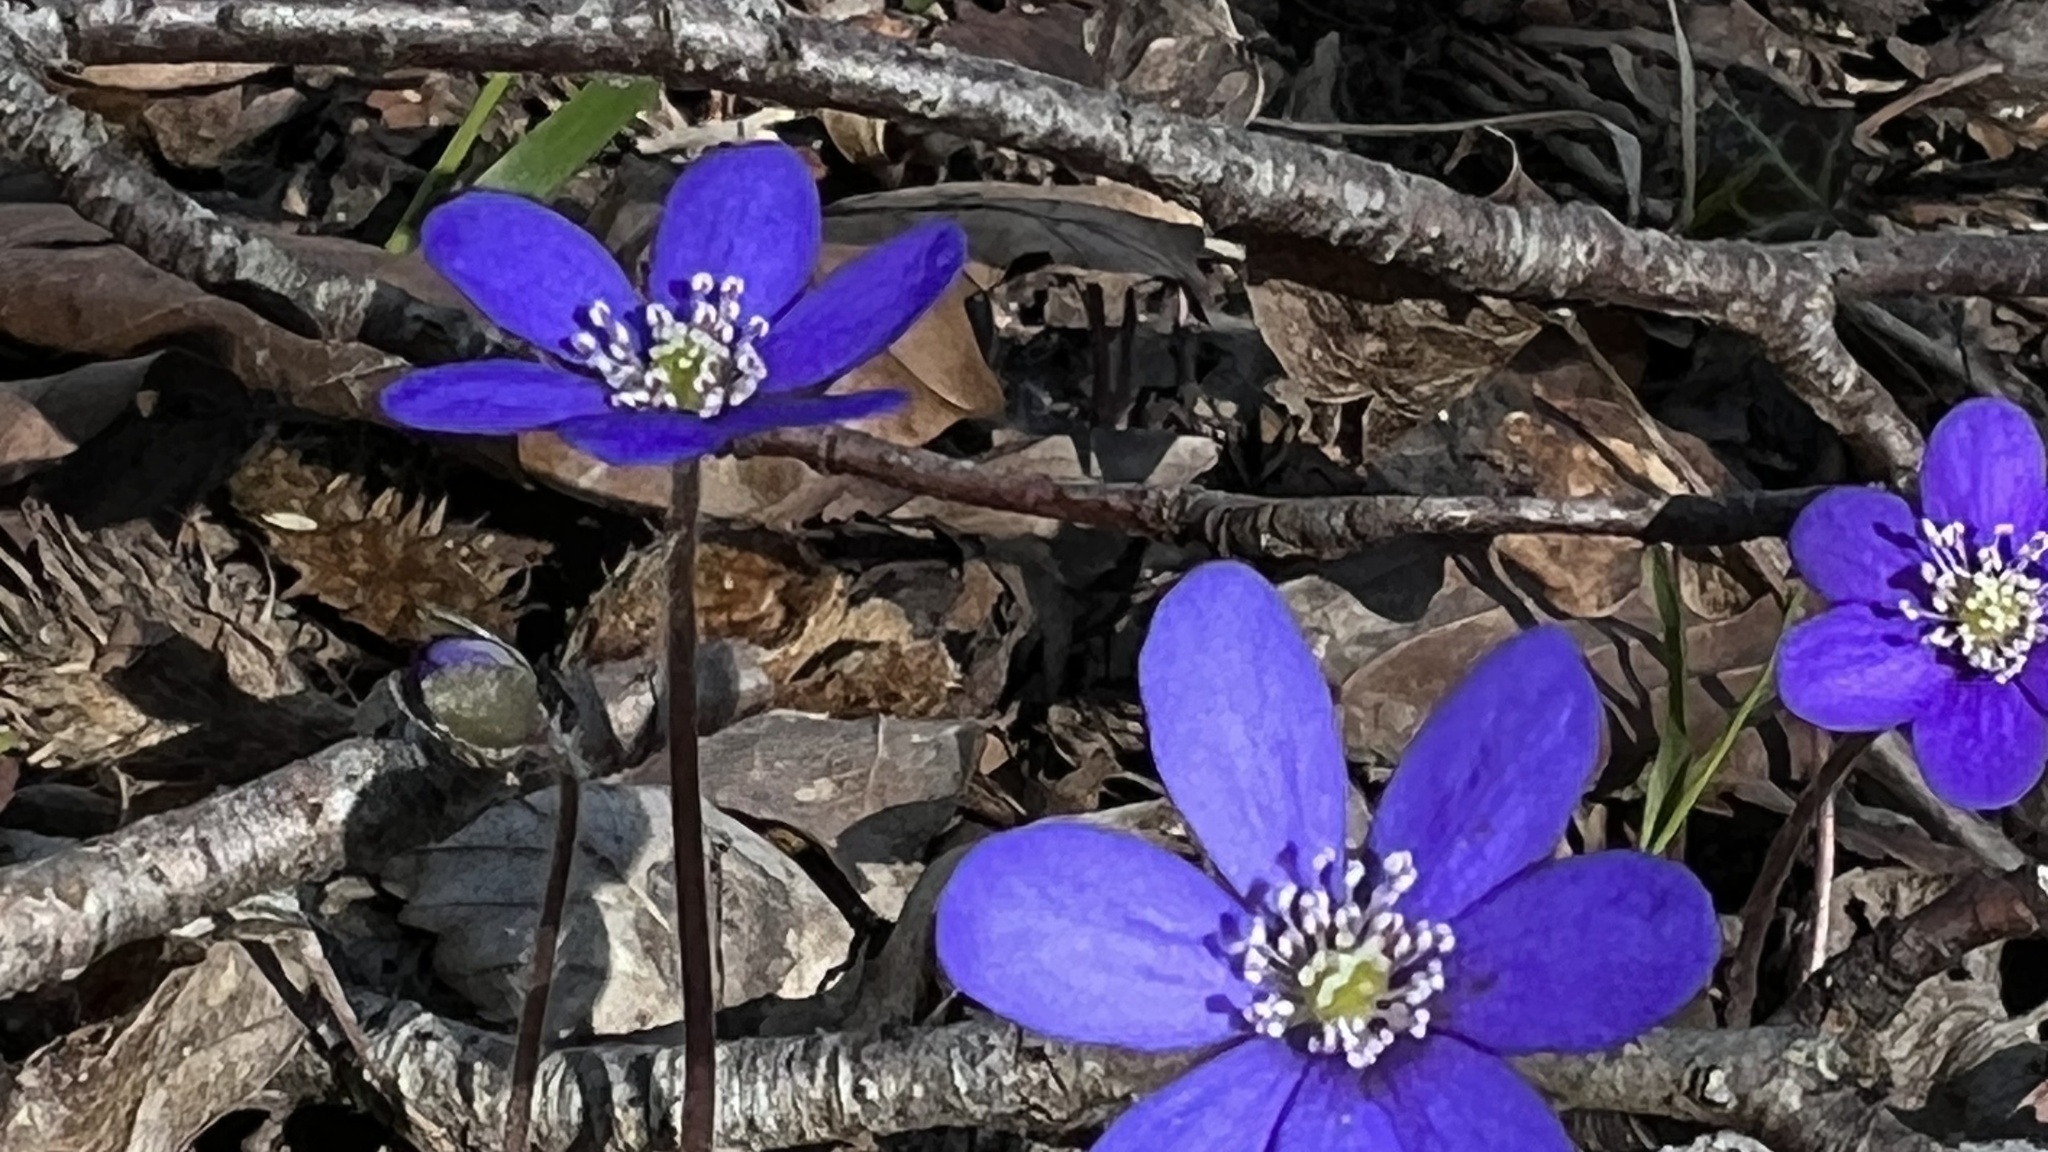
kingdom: Plantae
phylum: Tracheophyta
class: Magnoliopsida
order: Ranunculales
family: Ranunculaceae
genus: Hepatica
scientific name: Hepatica nobilis
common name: Liverleaf
